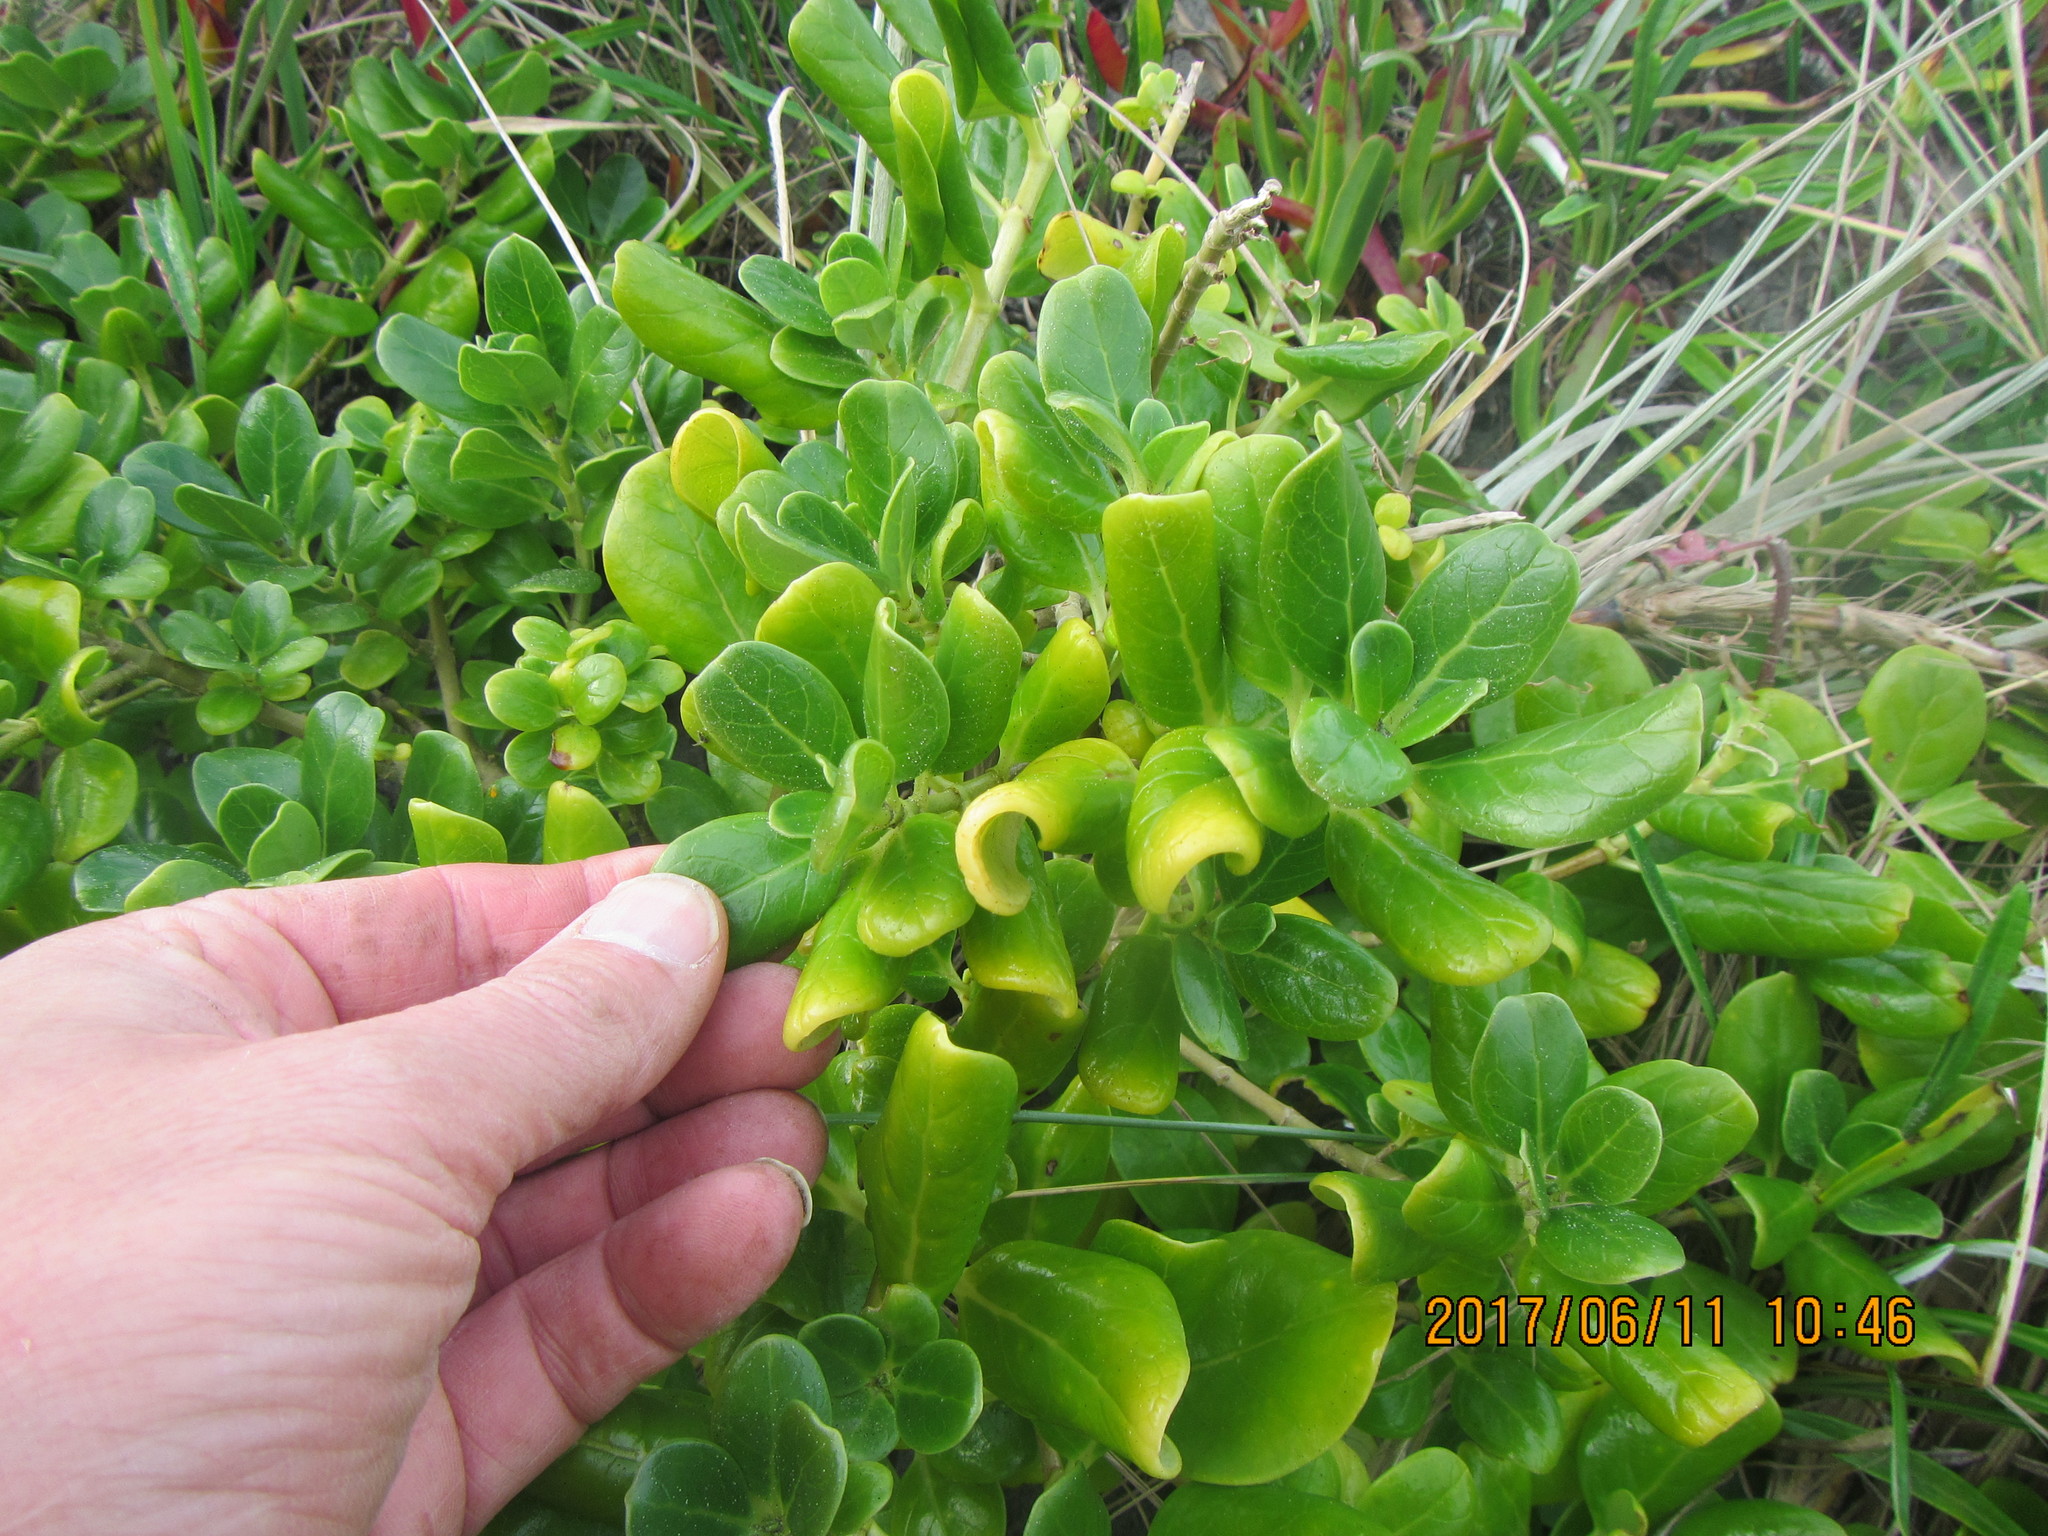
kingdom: Plantae
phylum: Tracheophyta
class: Magnoliopsida
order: Gentianales
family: Rubiaceae
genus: Coprosma
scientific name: Coprosma repens
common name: Tree bedstraw
